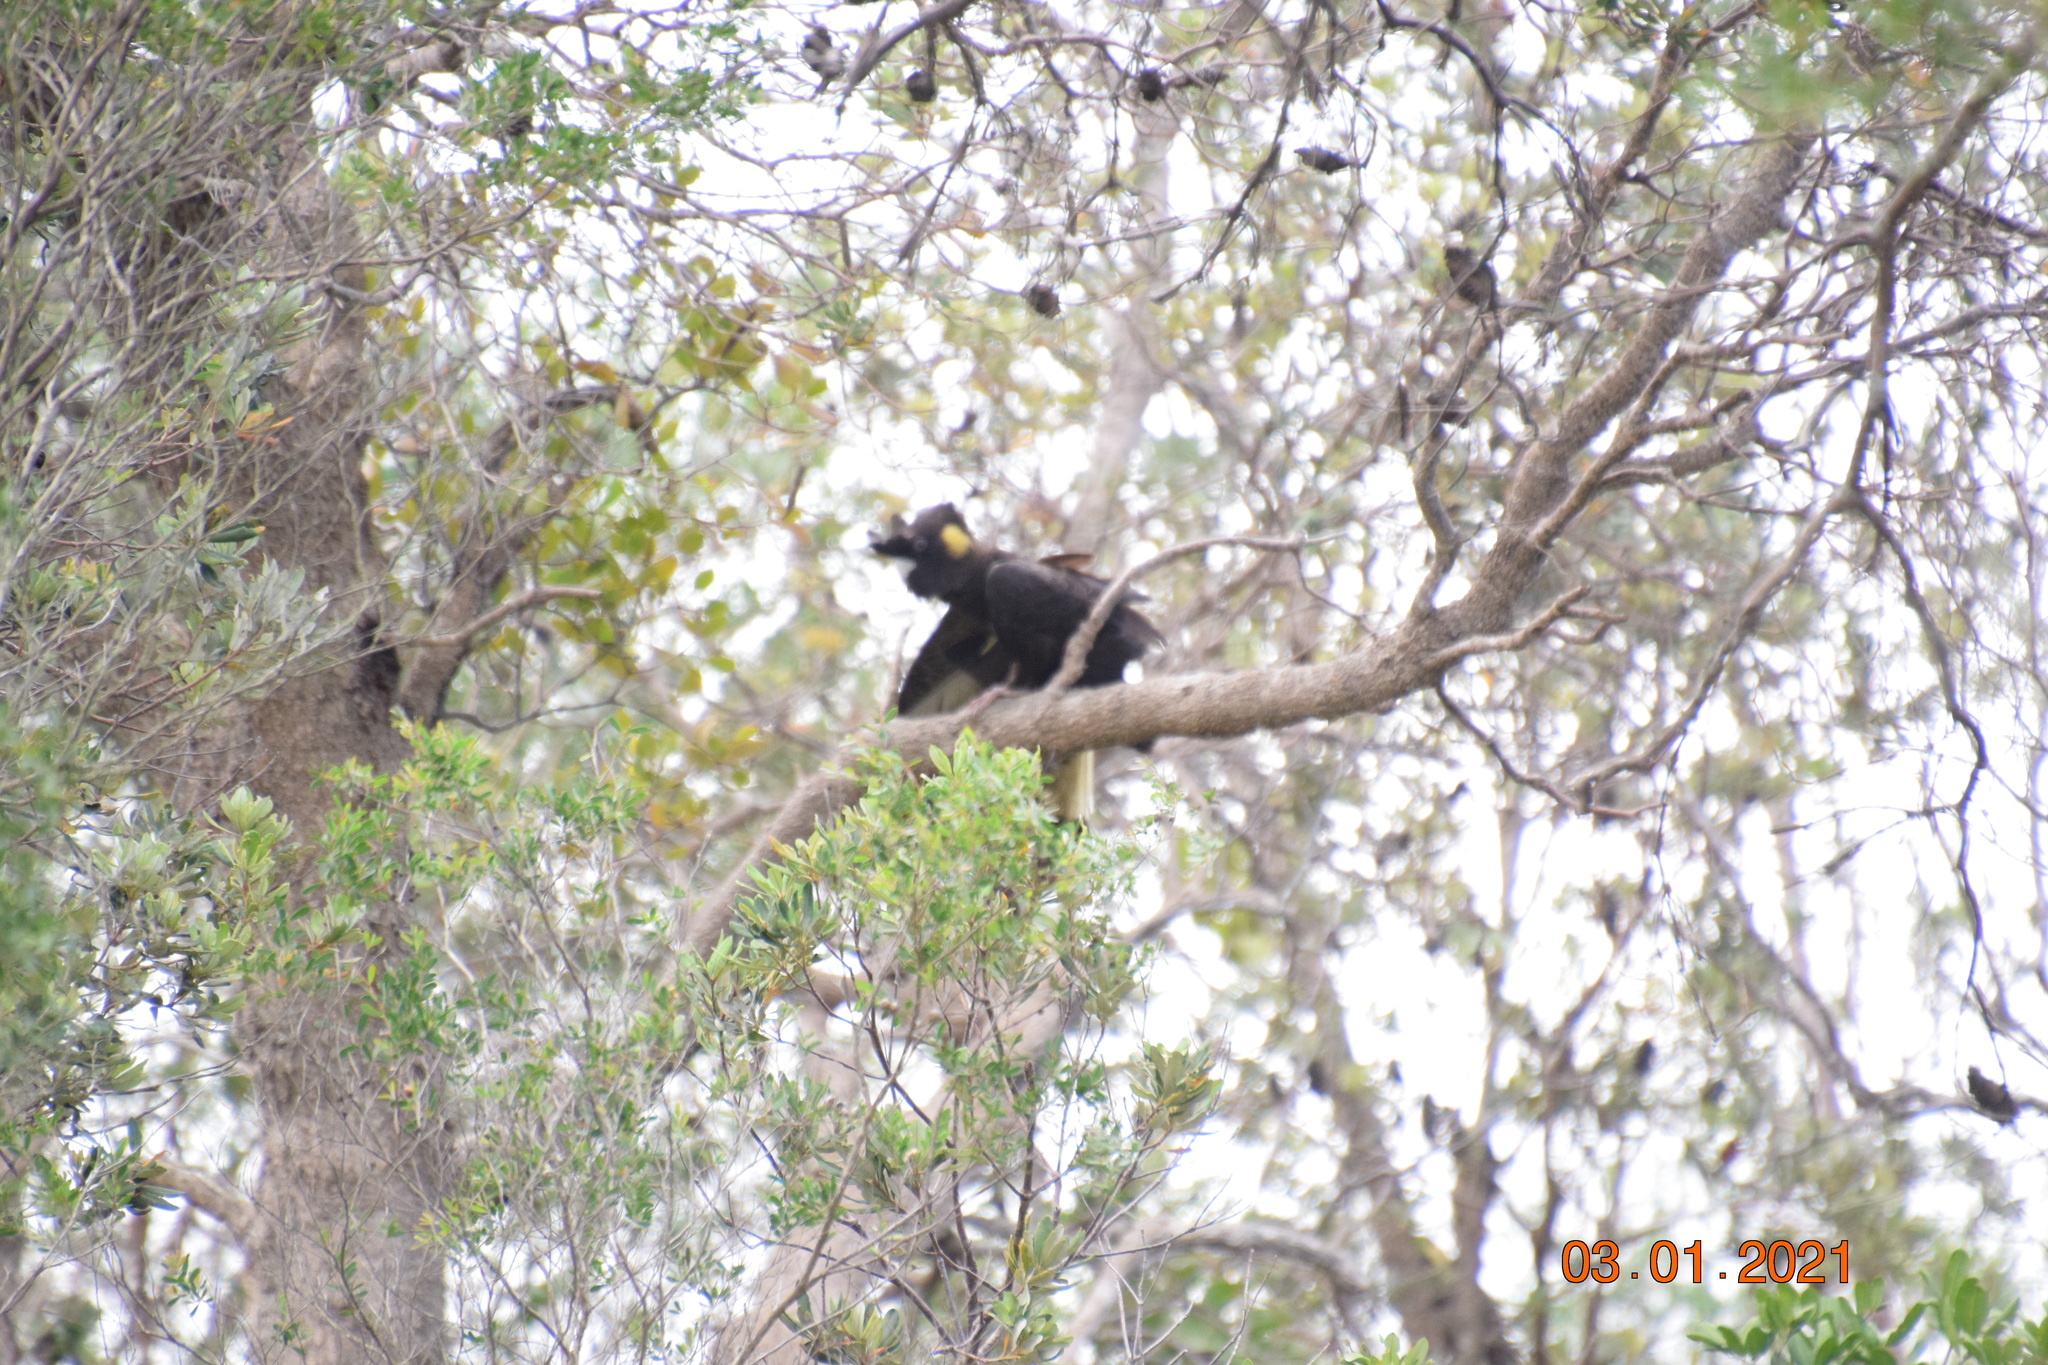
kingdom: Animalia
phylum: Chordata
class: Aves
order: Psittaciformes
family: Cacatuidae
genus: Zanda
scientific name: Zanda funerea
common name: Yellow-tailed black-cockatoo
